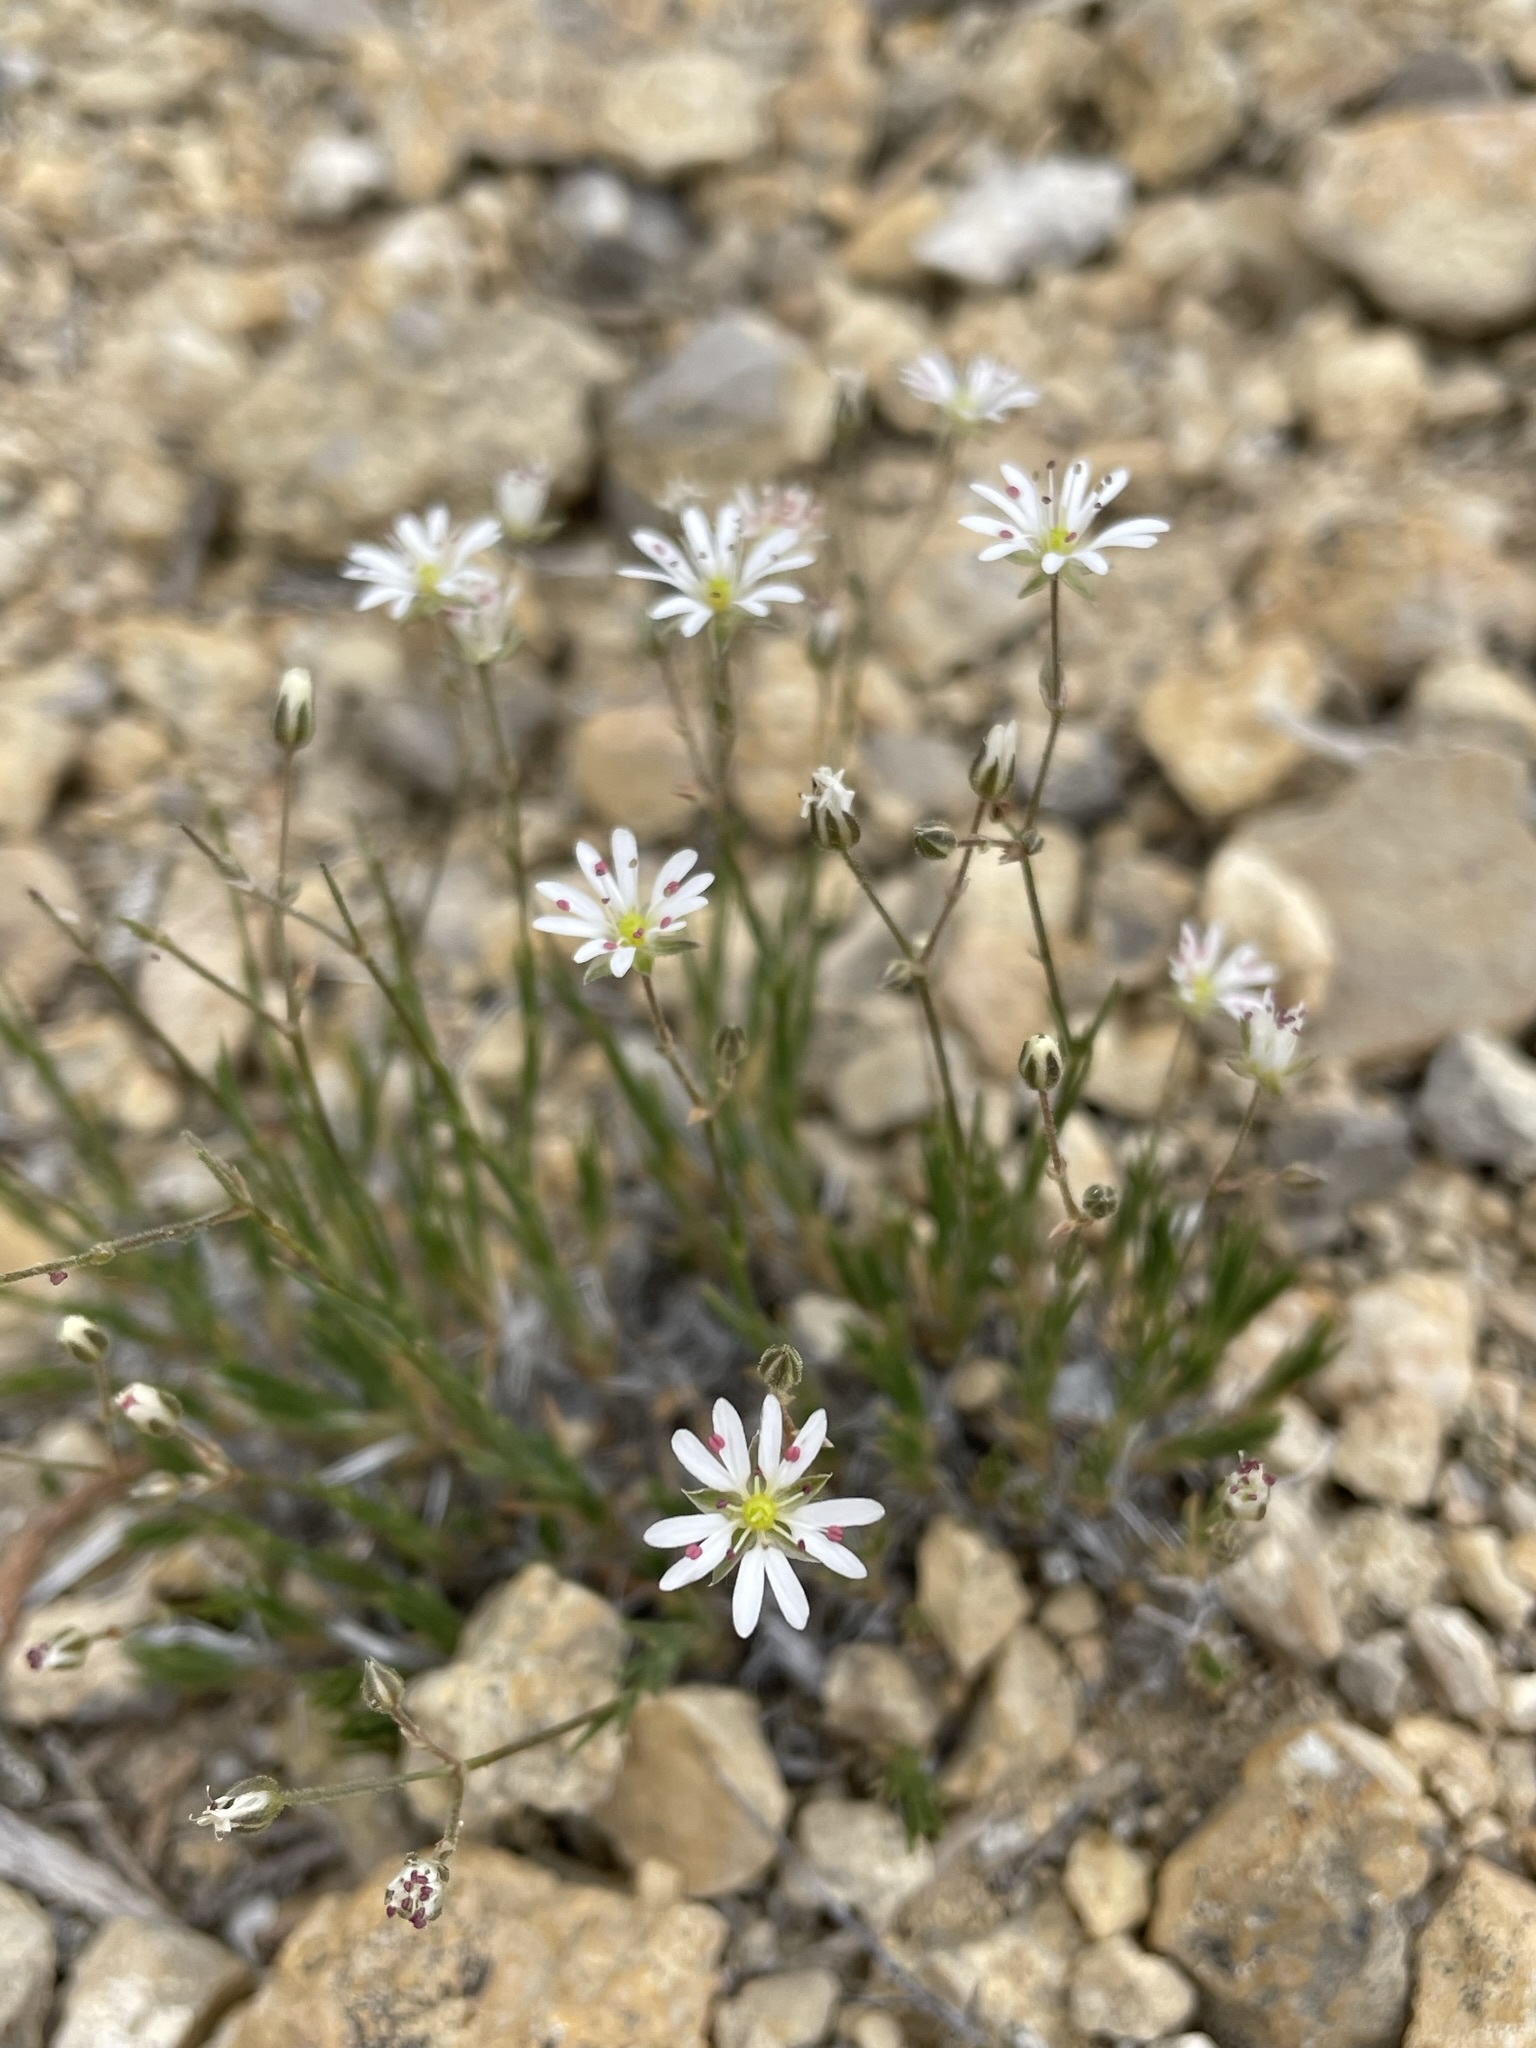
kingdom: Plantae
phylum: Tracheophyta
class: Magnoliopsida
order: Caryophyllales
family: Caryophyllaceae
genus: Eremogone
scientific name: Eremogone kingii
